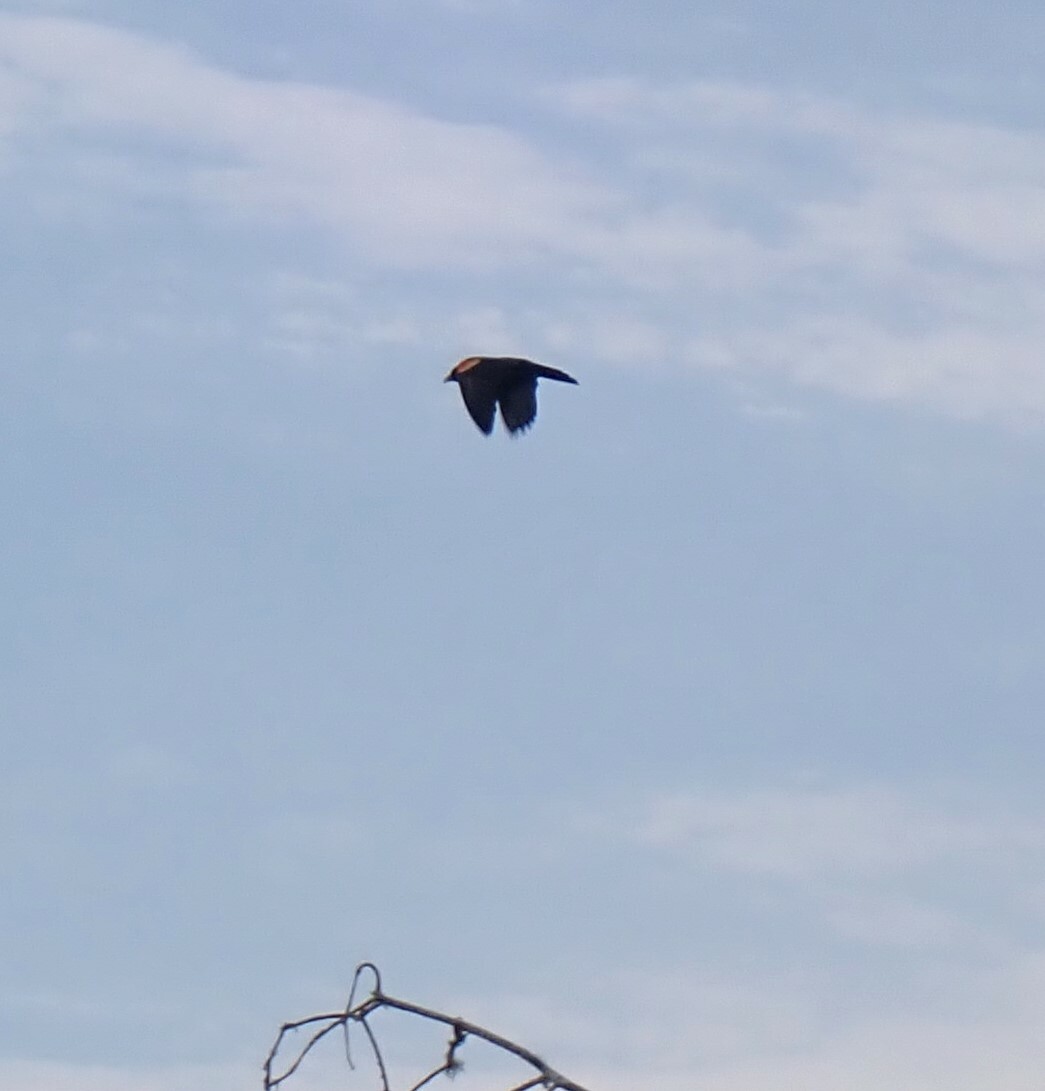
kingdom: Animalia
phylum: Chordata
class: Aves
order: Passeriformes
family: Icteridae
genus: Agelaius
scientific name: Agelaius phoeniceus
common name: Red-winged blackbird
